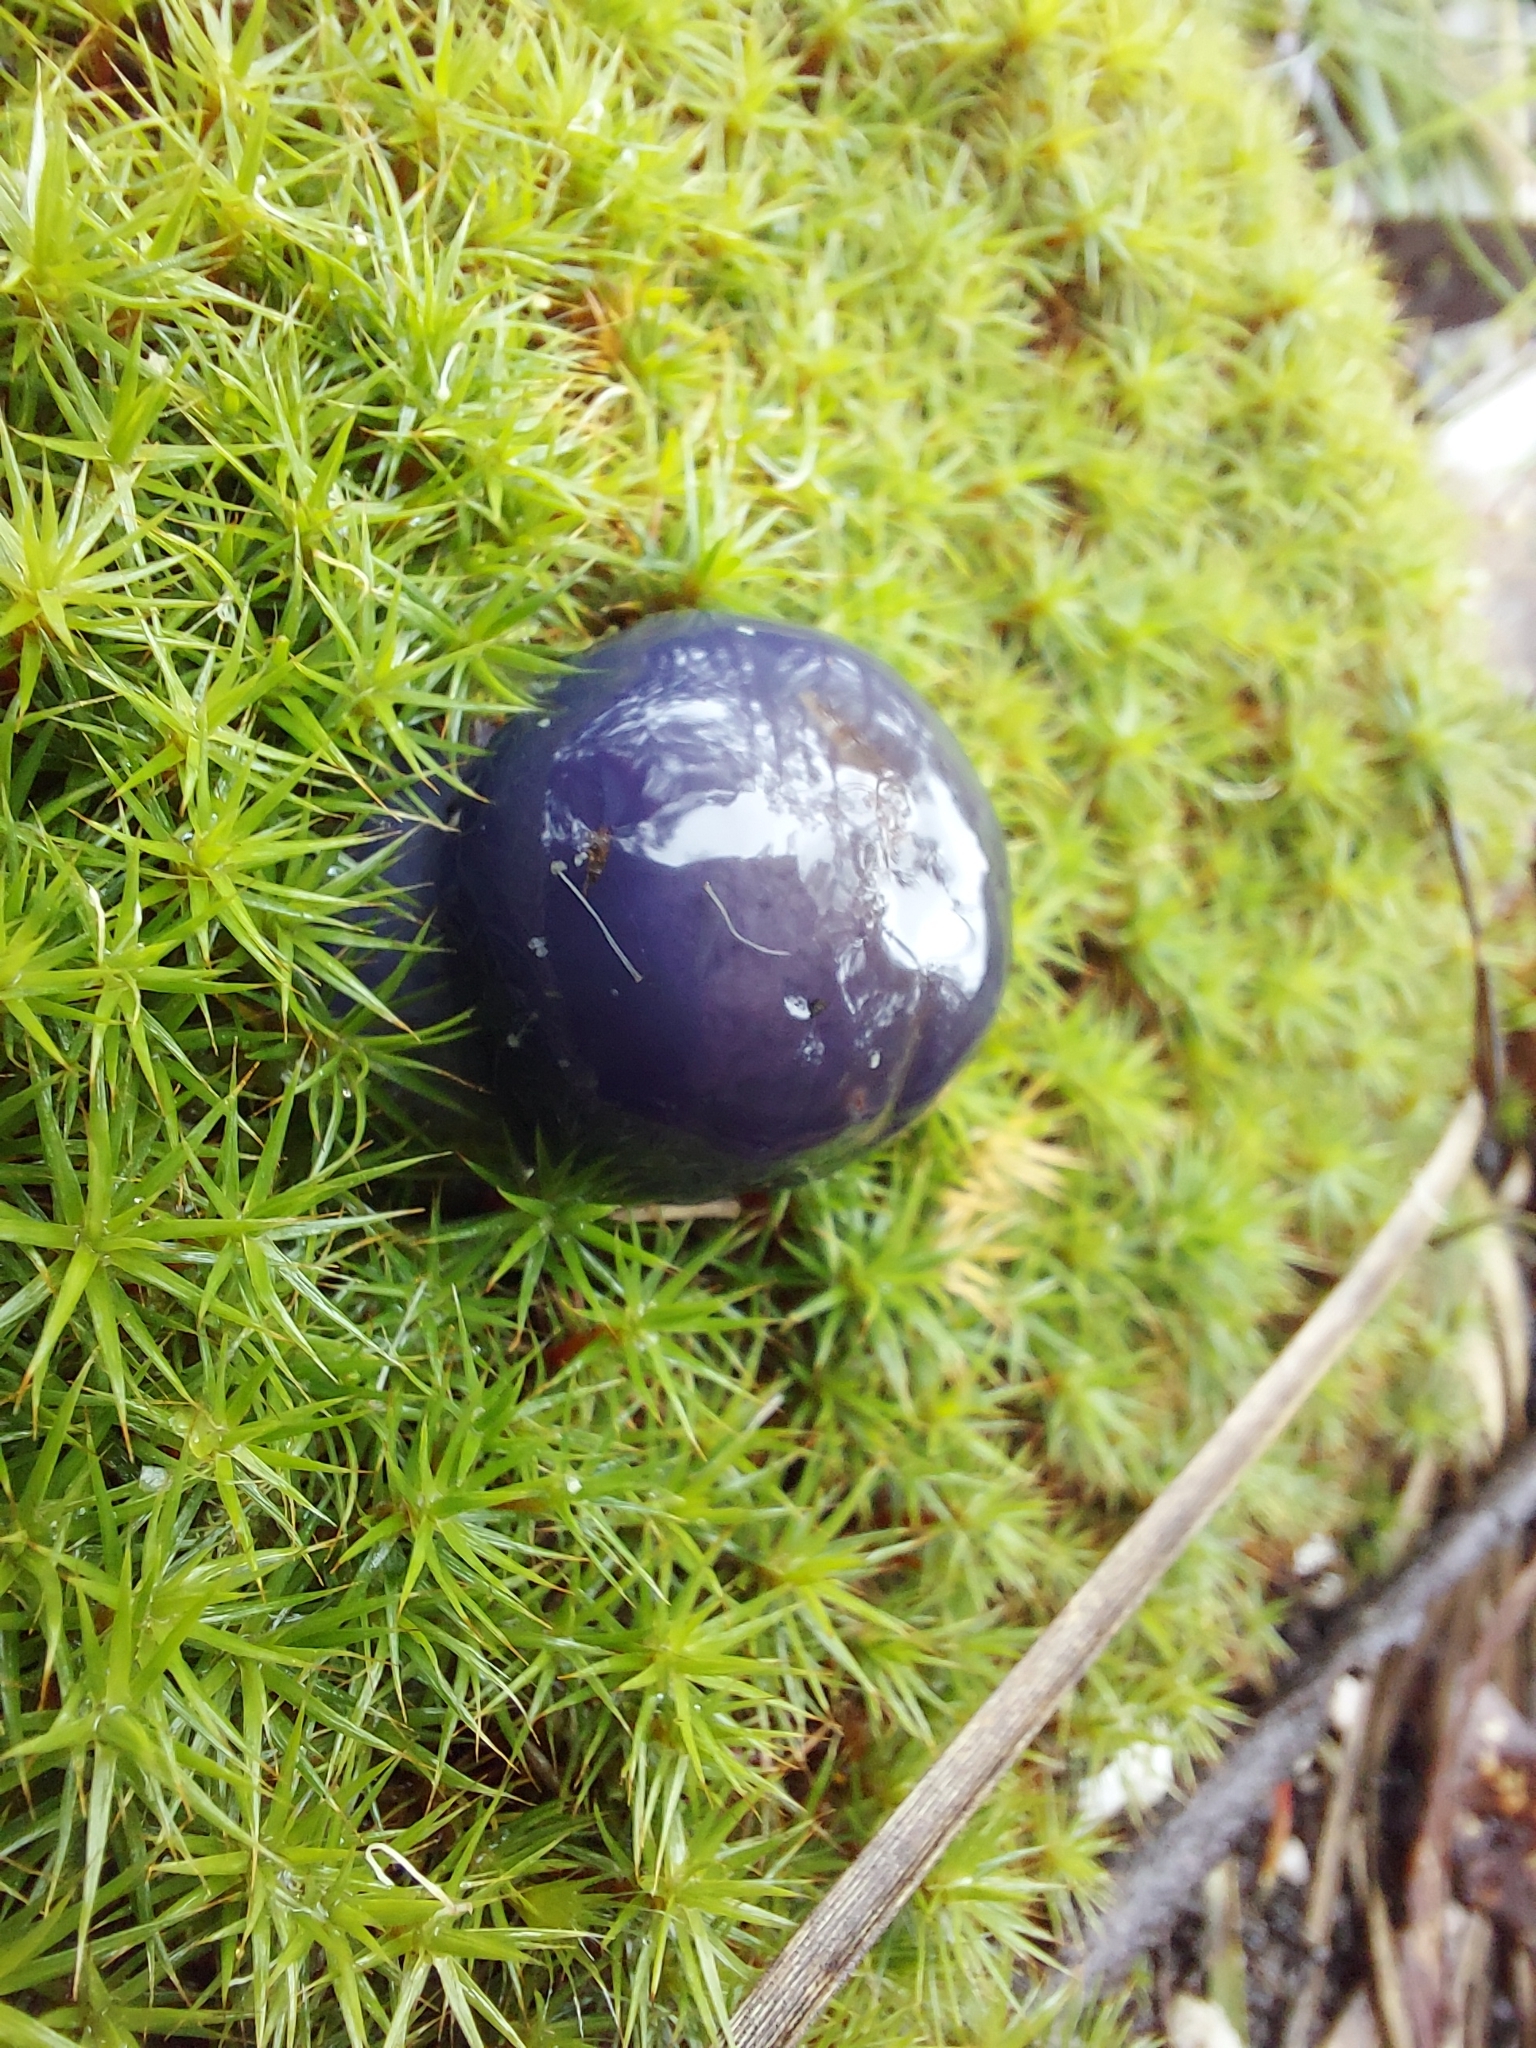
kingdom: Fungi
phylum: Basidiomycota
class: Agaricomycetes
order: Agaricales
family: Cortinariaceae
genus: Cortinarius
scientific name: Cortinarius archeri
